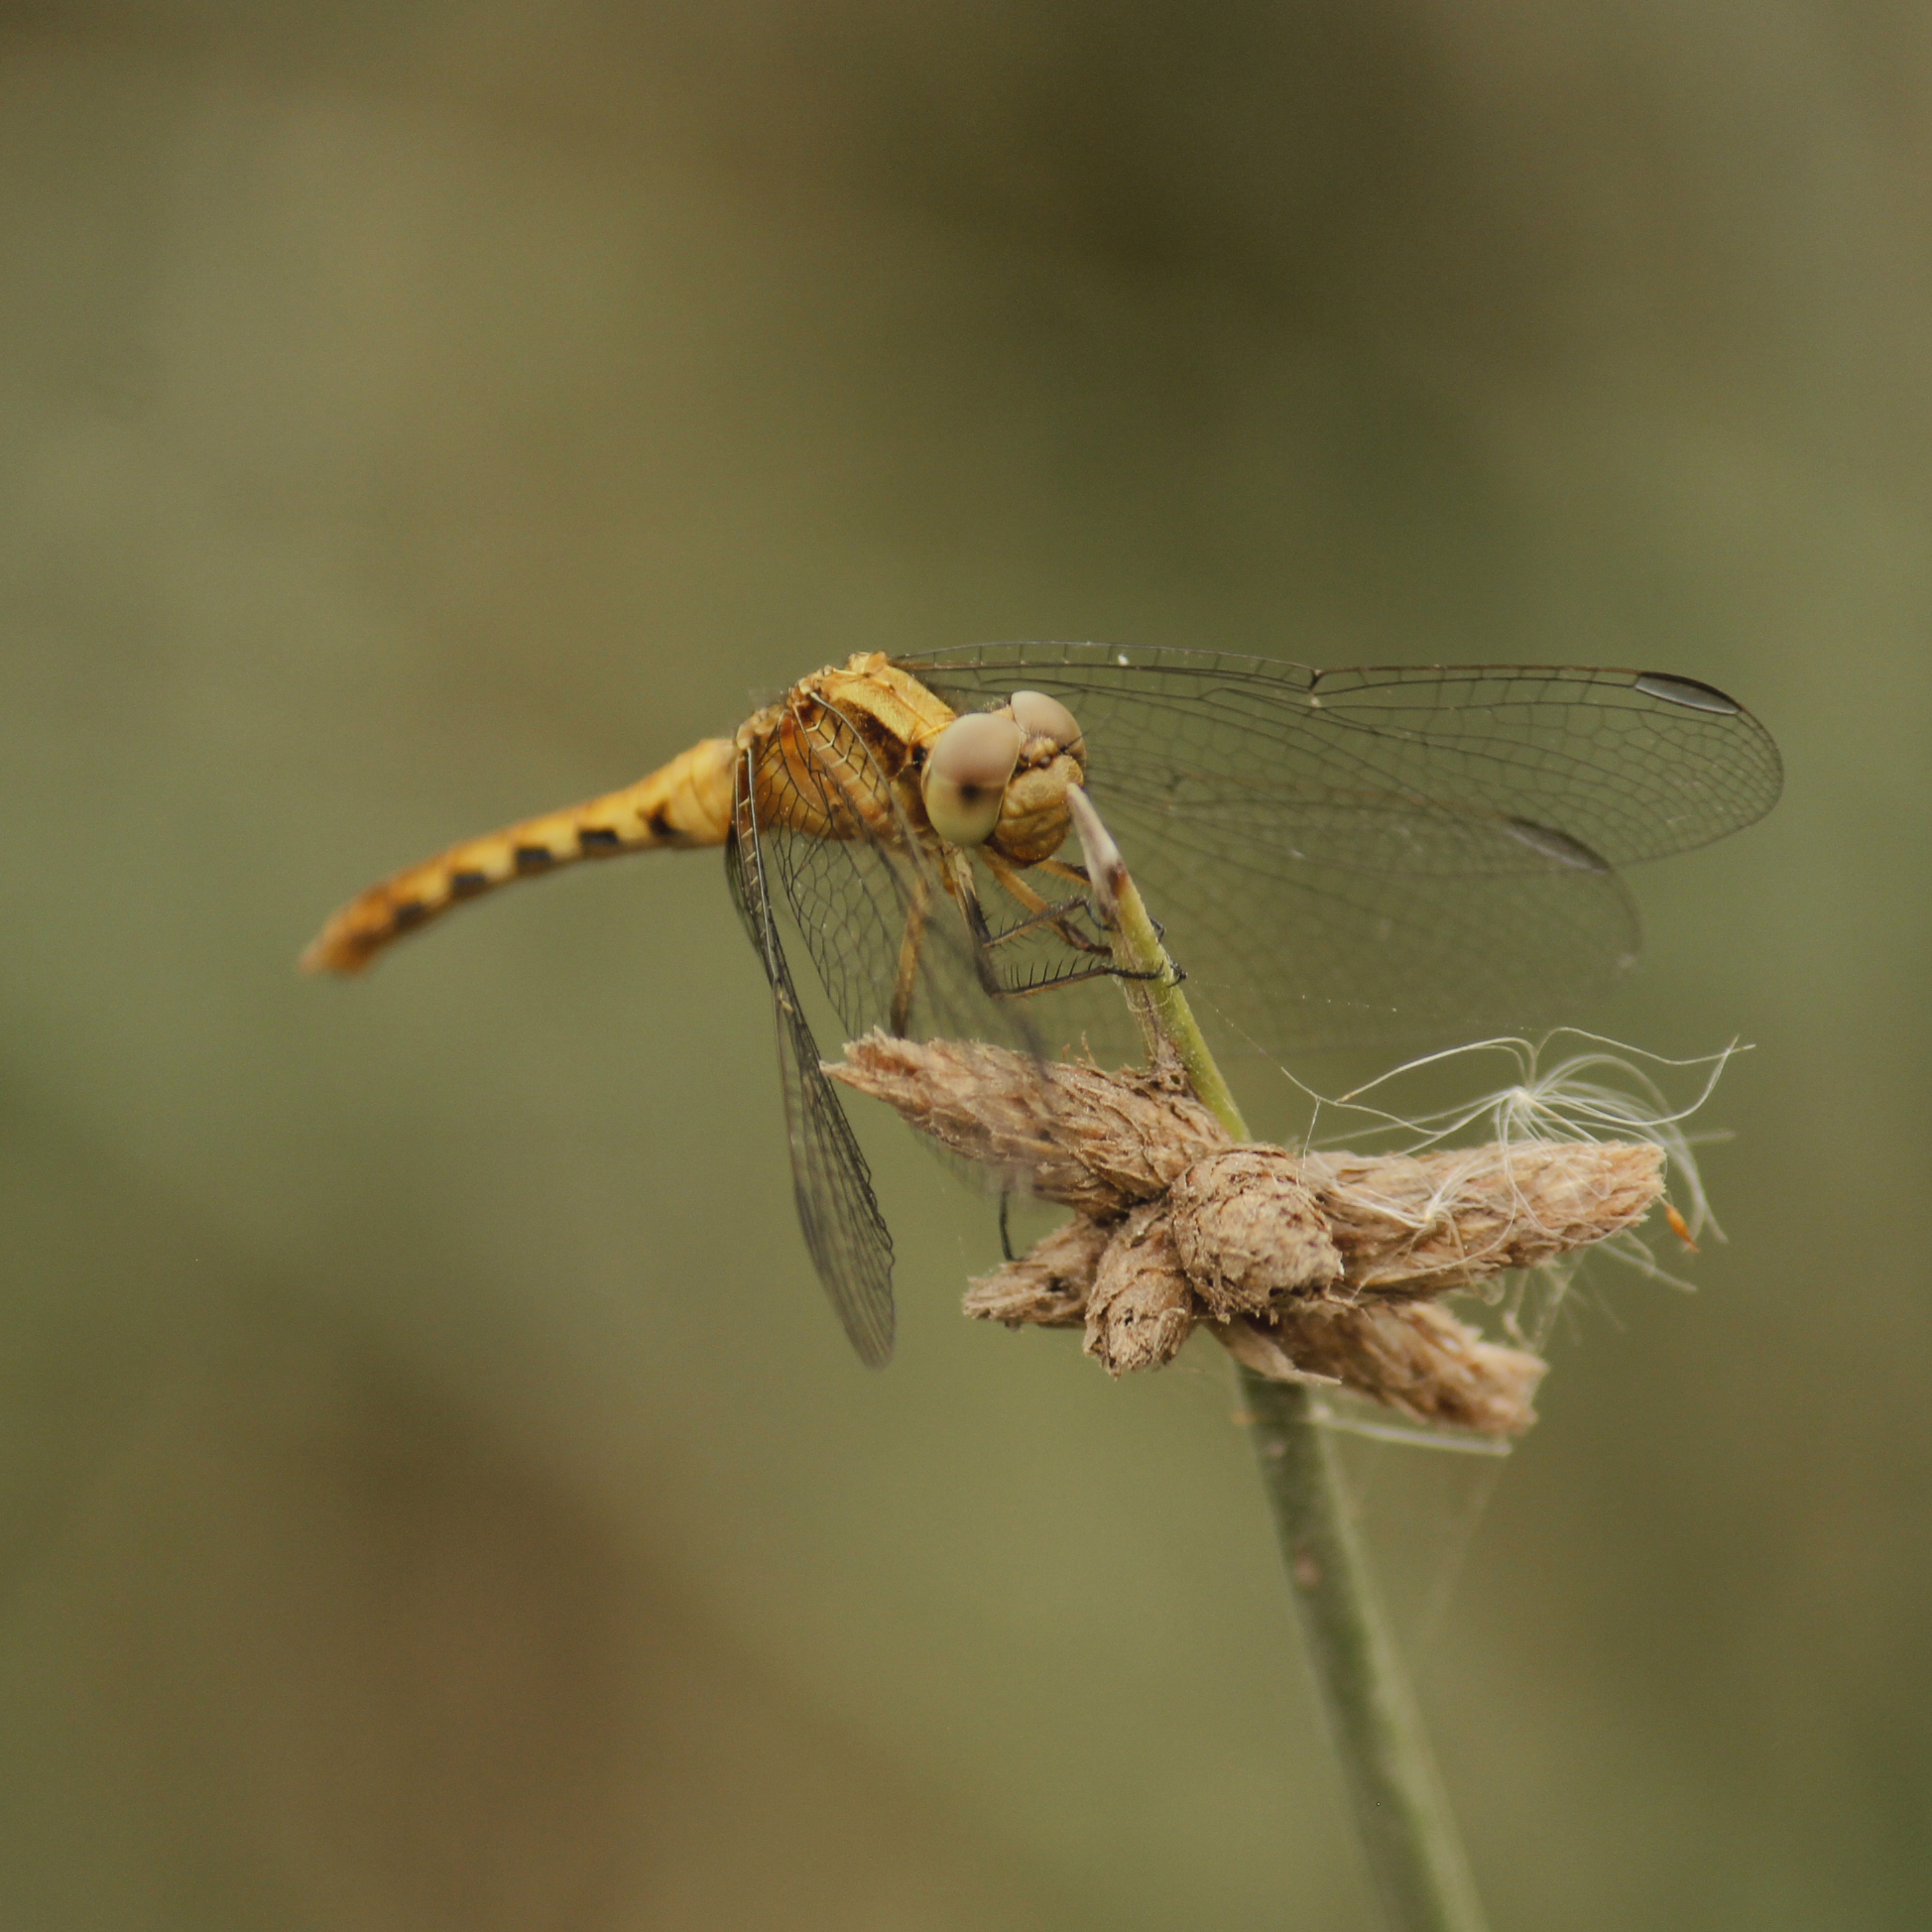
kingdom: Animalia
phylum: Arthropoda
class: Insecta
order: Odonata
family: Libellulidae
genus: Erythrodiplax
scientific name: Erythrodiplax cleopatra
